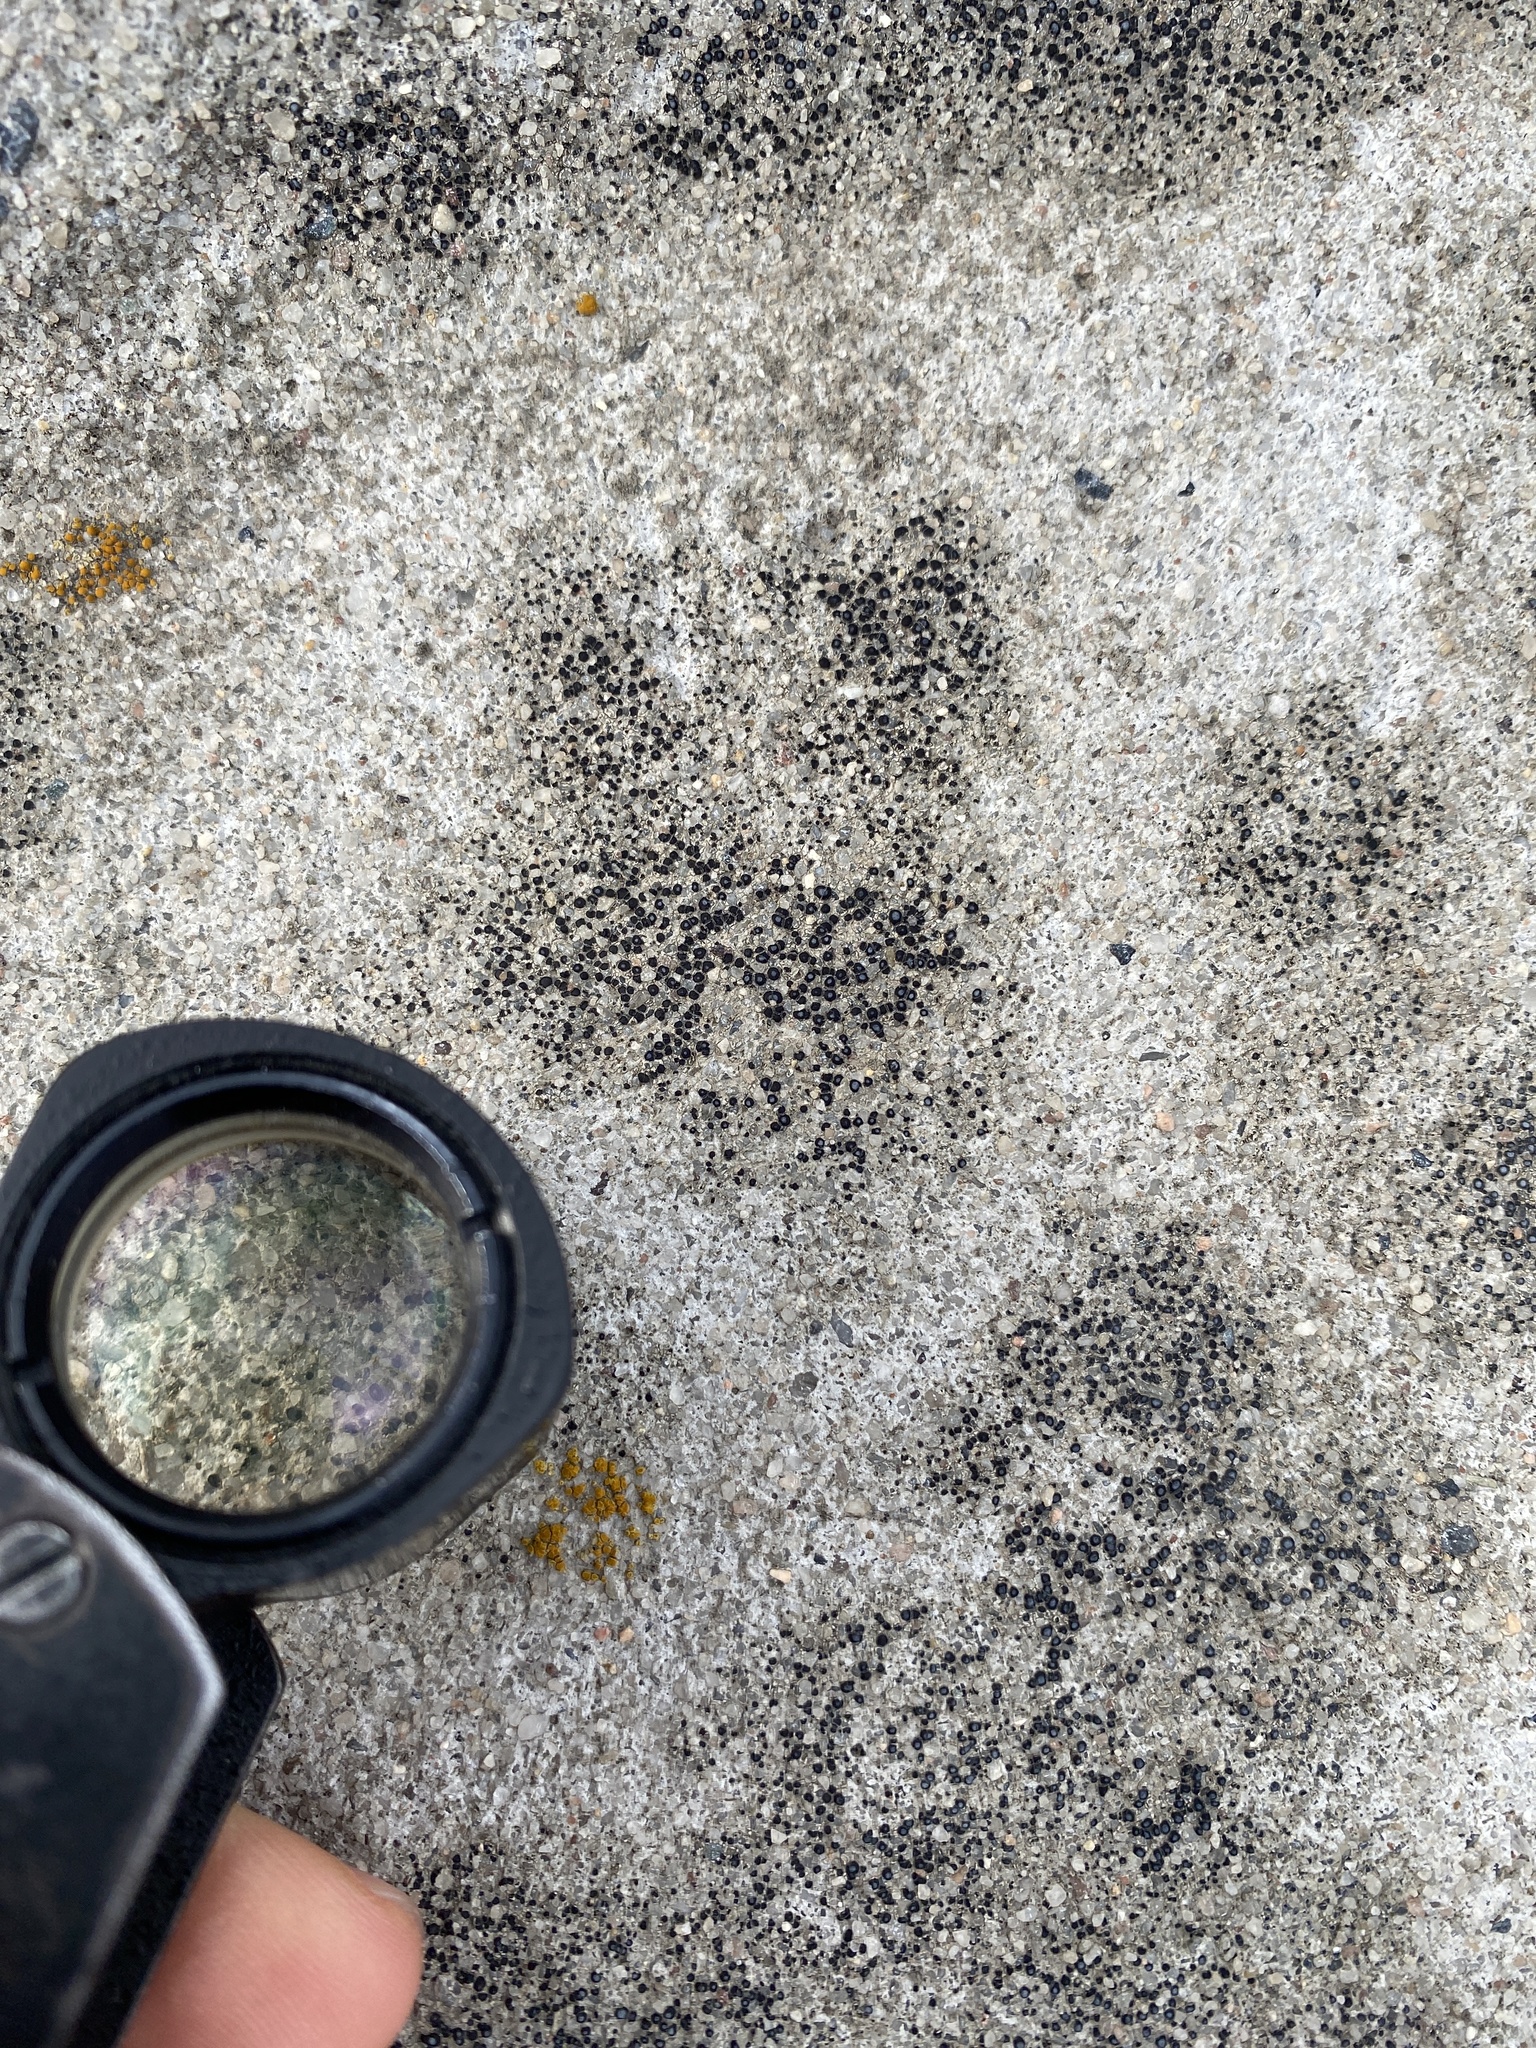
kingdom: Fungi
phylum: Ascomycota
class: Lecanoromycetes
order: Acarosporales
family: Acarosporaceae
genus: Sarcogyne
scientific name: Sarcogyne regularis
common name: Frosted grain-spored lichen
